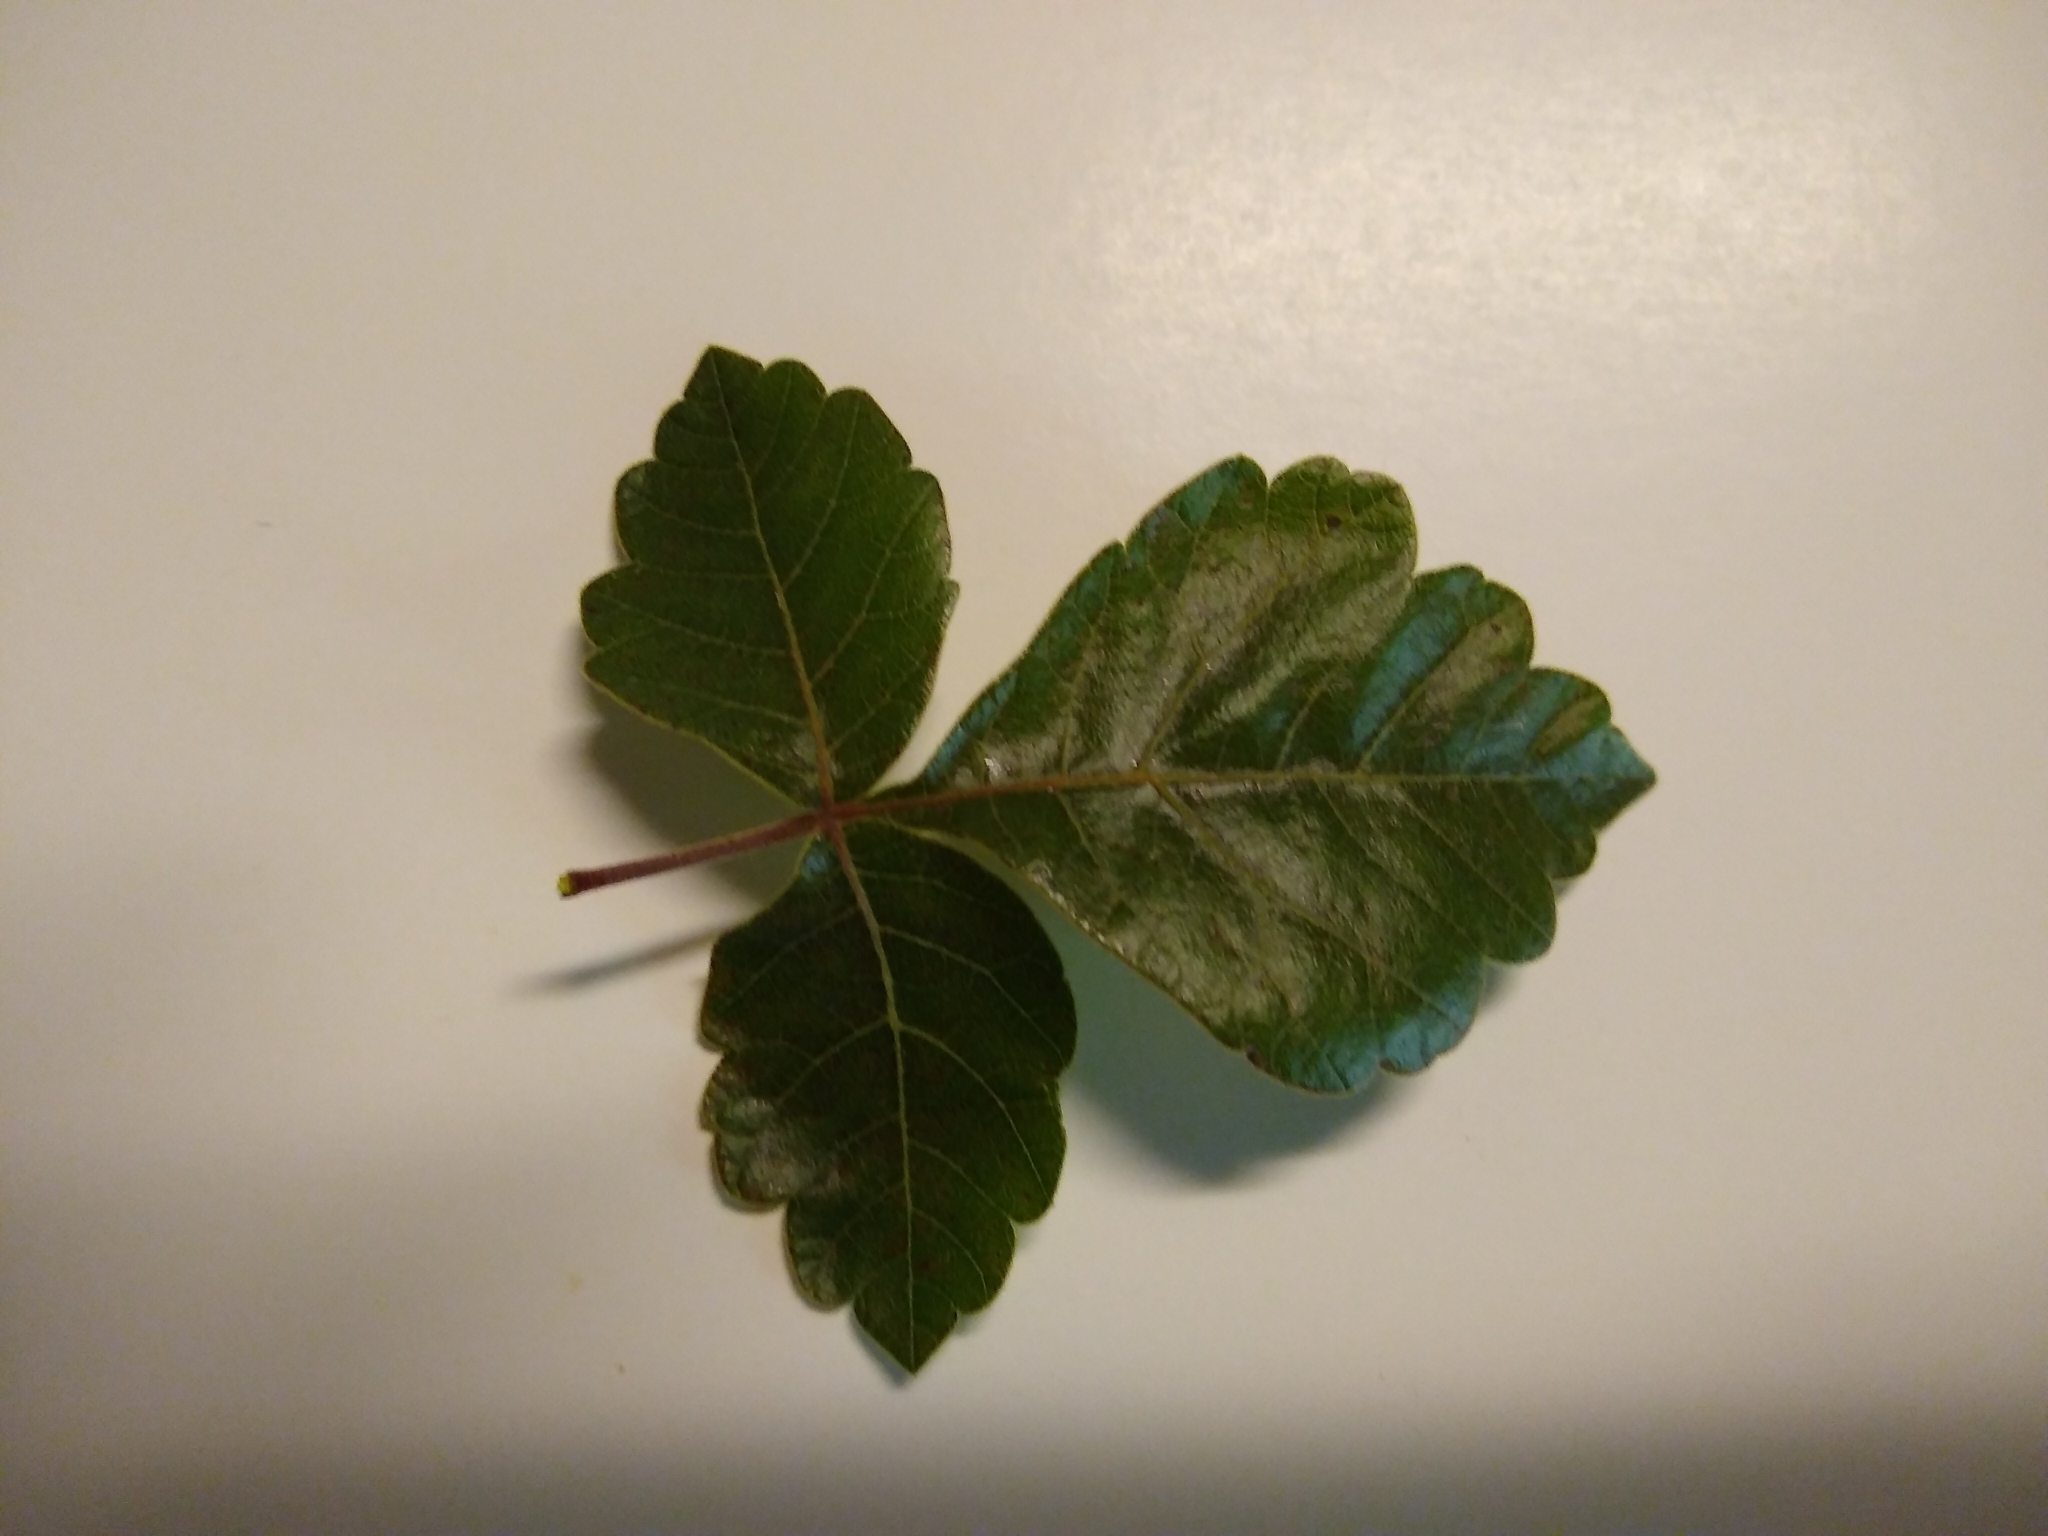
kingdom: Plantae
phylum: Tracheophyta
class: Magnoliopsida
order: Sapindales
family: Anacardiaceae
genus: Rhus
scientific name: Rhus aromatica
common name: Aromatic sumac
